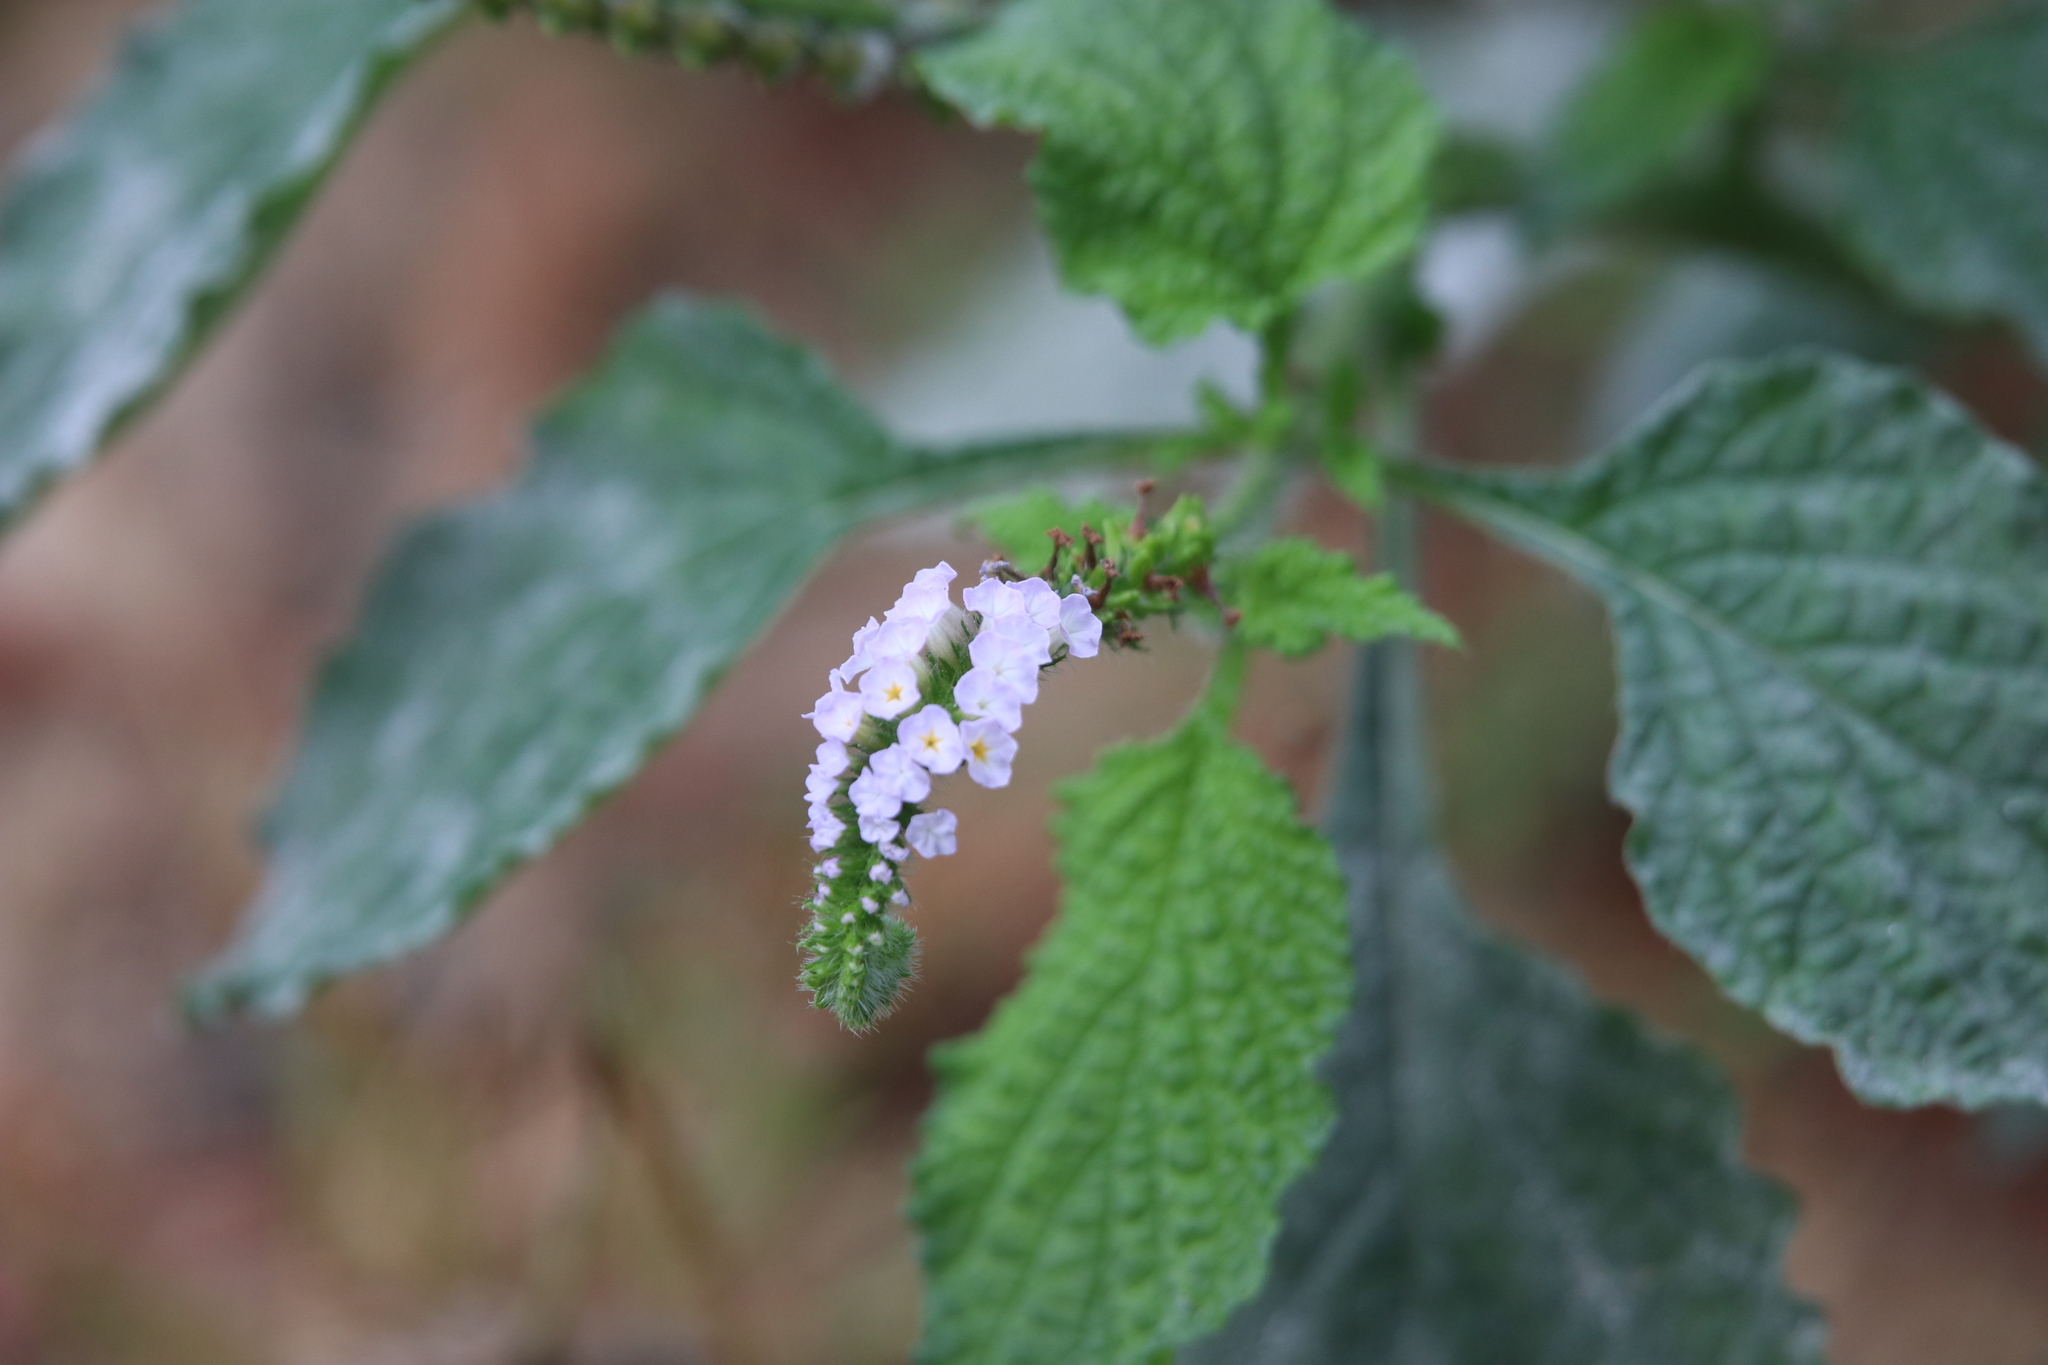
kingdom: Plantae
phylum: Tracheophyta
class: Magnoliopsida
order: Boraginales
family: Heliotropiaceae
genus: Heliotropium
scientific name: Heliotropium indicum
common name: Indian heliotrope
